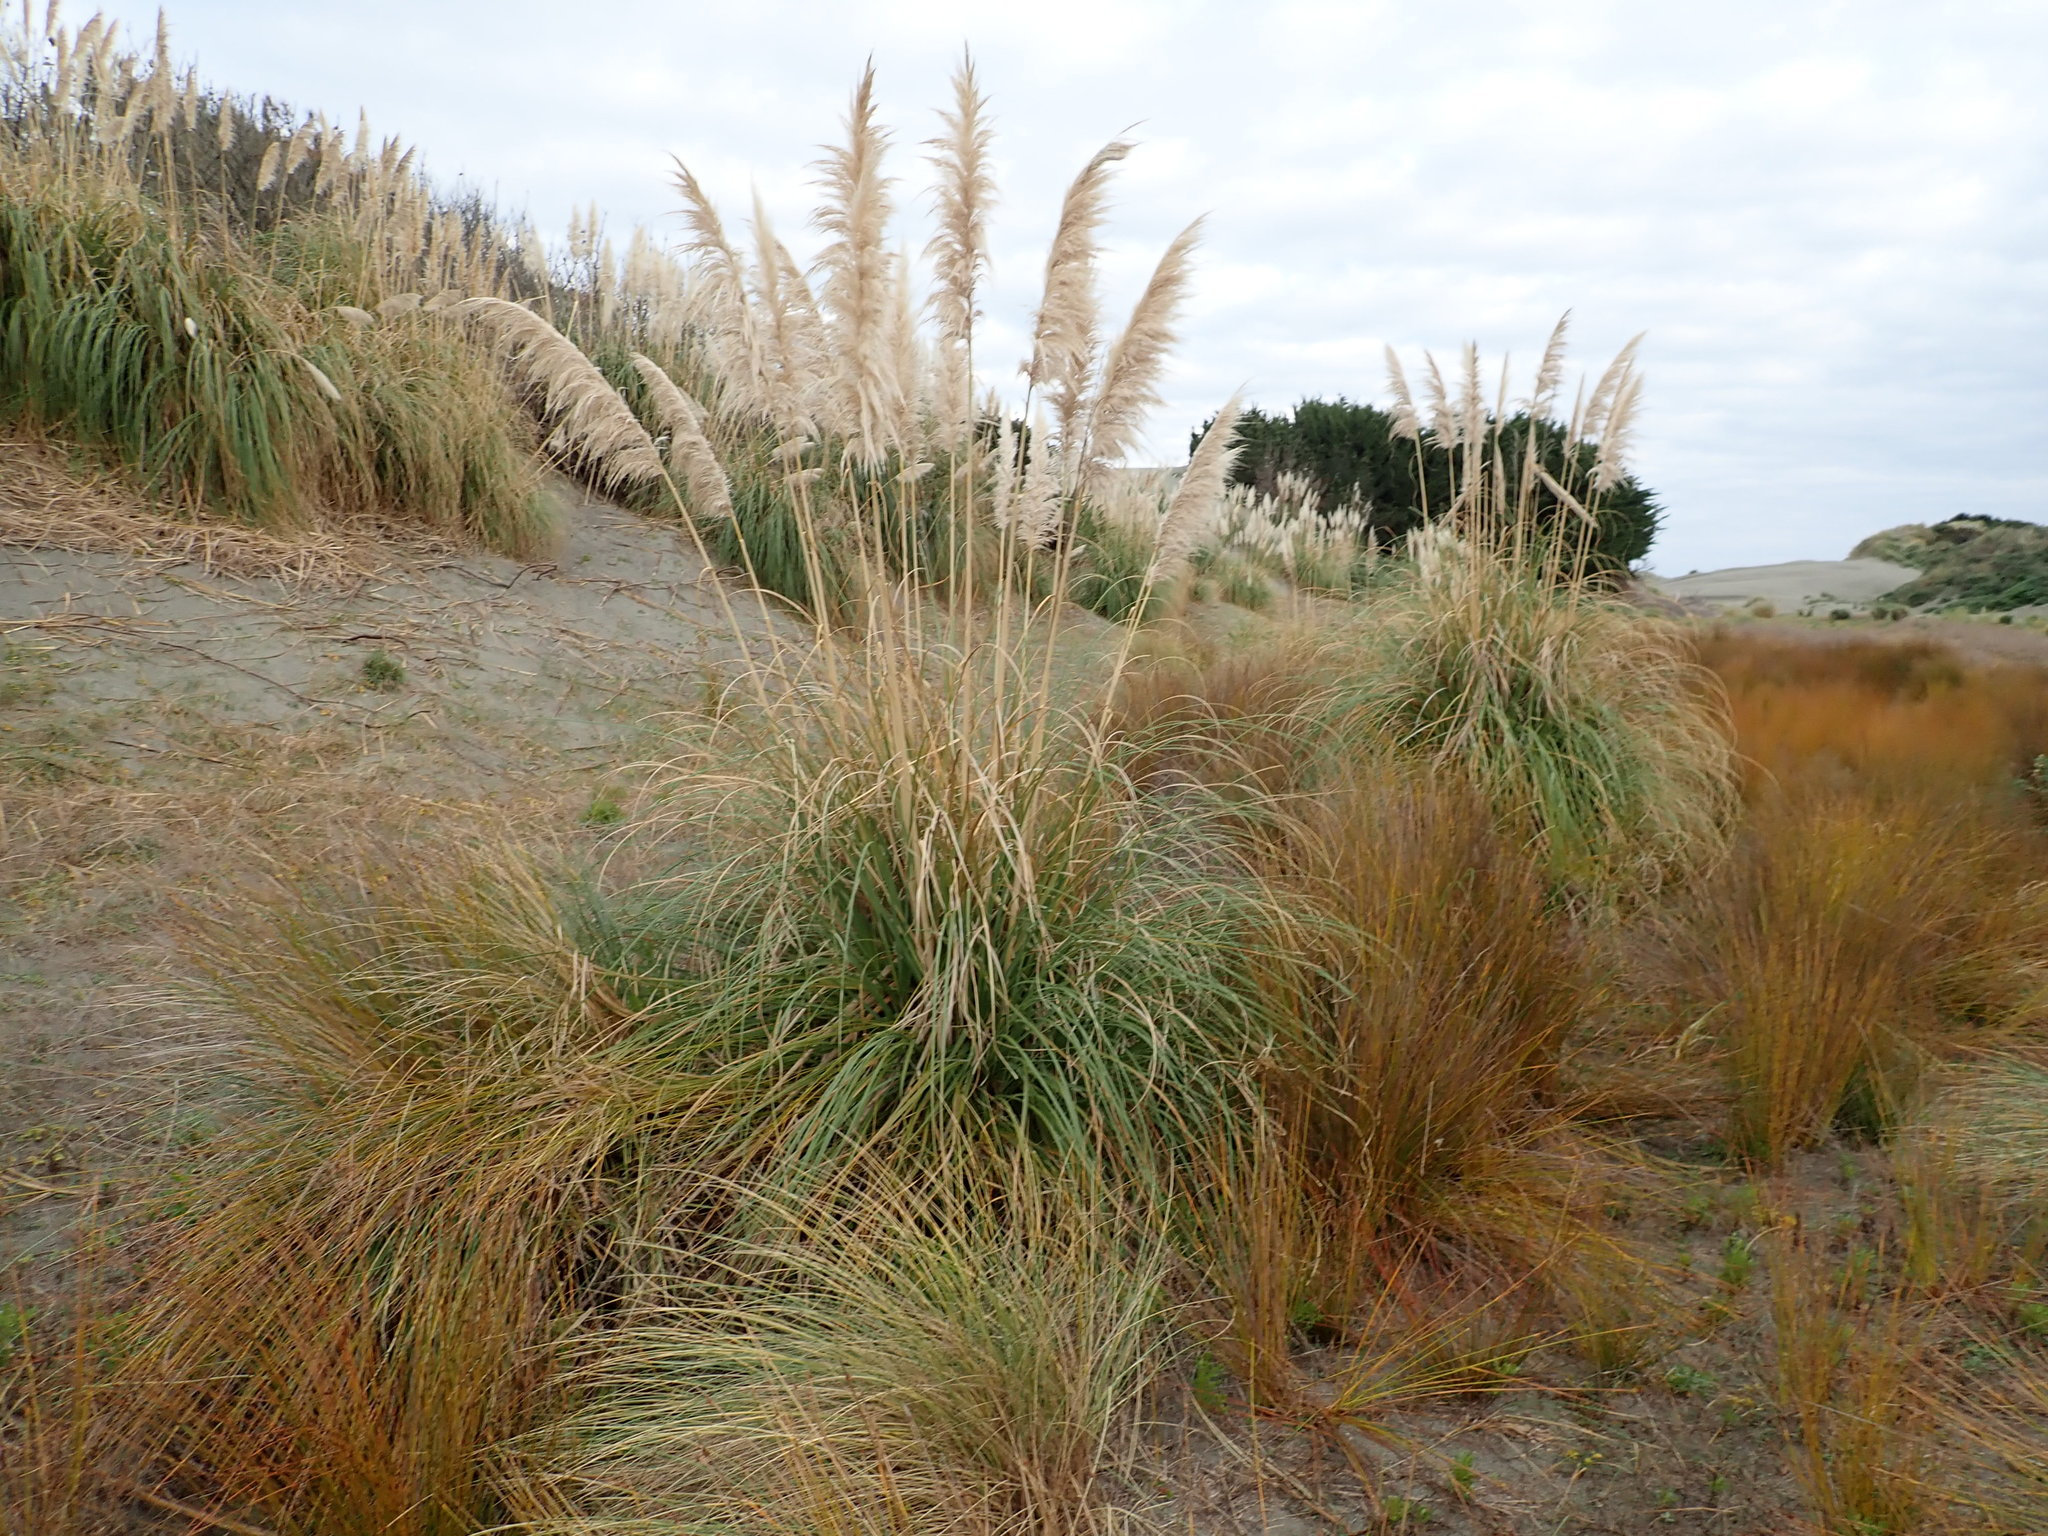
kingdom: Plantae
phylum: Tracheophyta
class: Liliopsida
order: Poales
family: Poaceae
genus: Cortaderia
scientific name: Cortaderia selloana
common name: Uruguayan pampas grass
